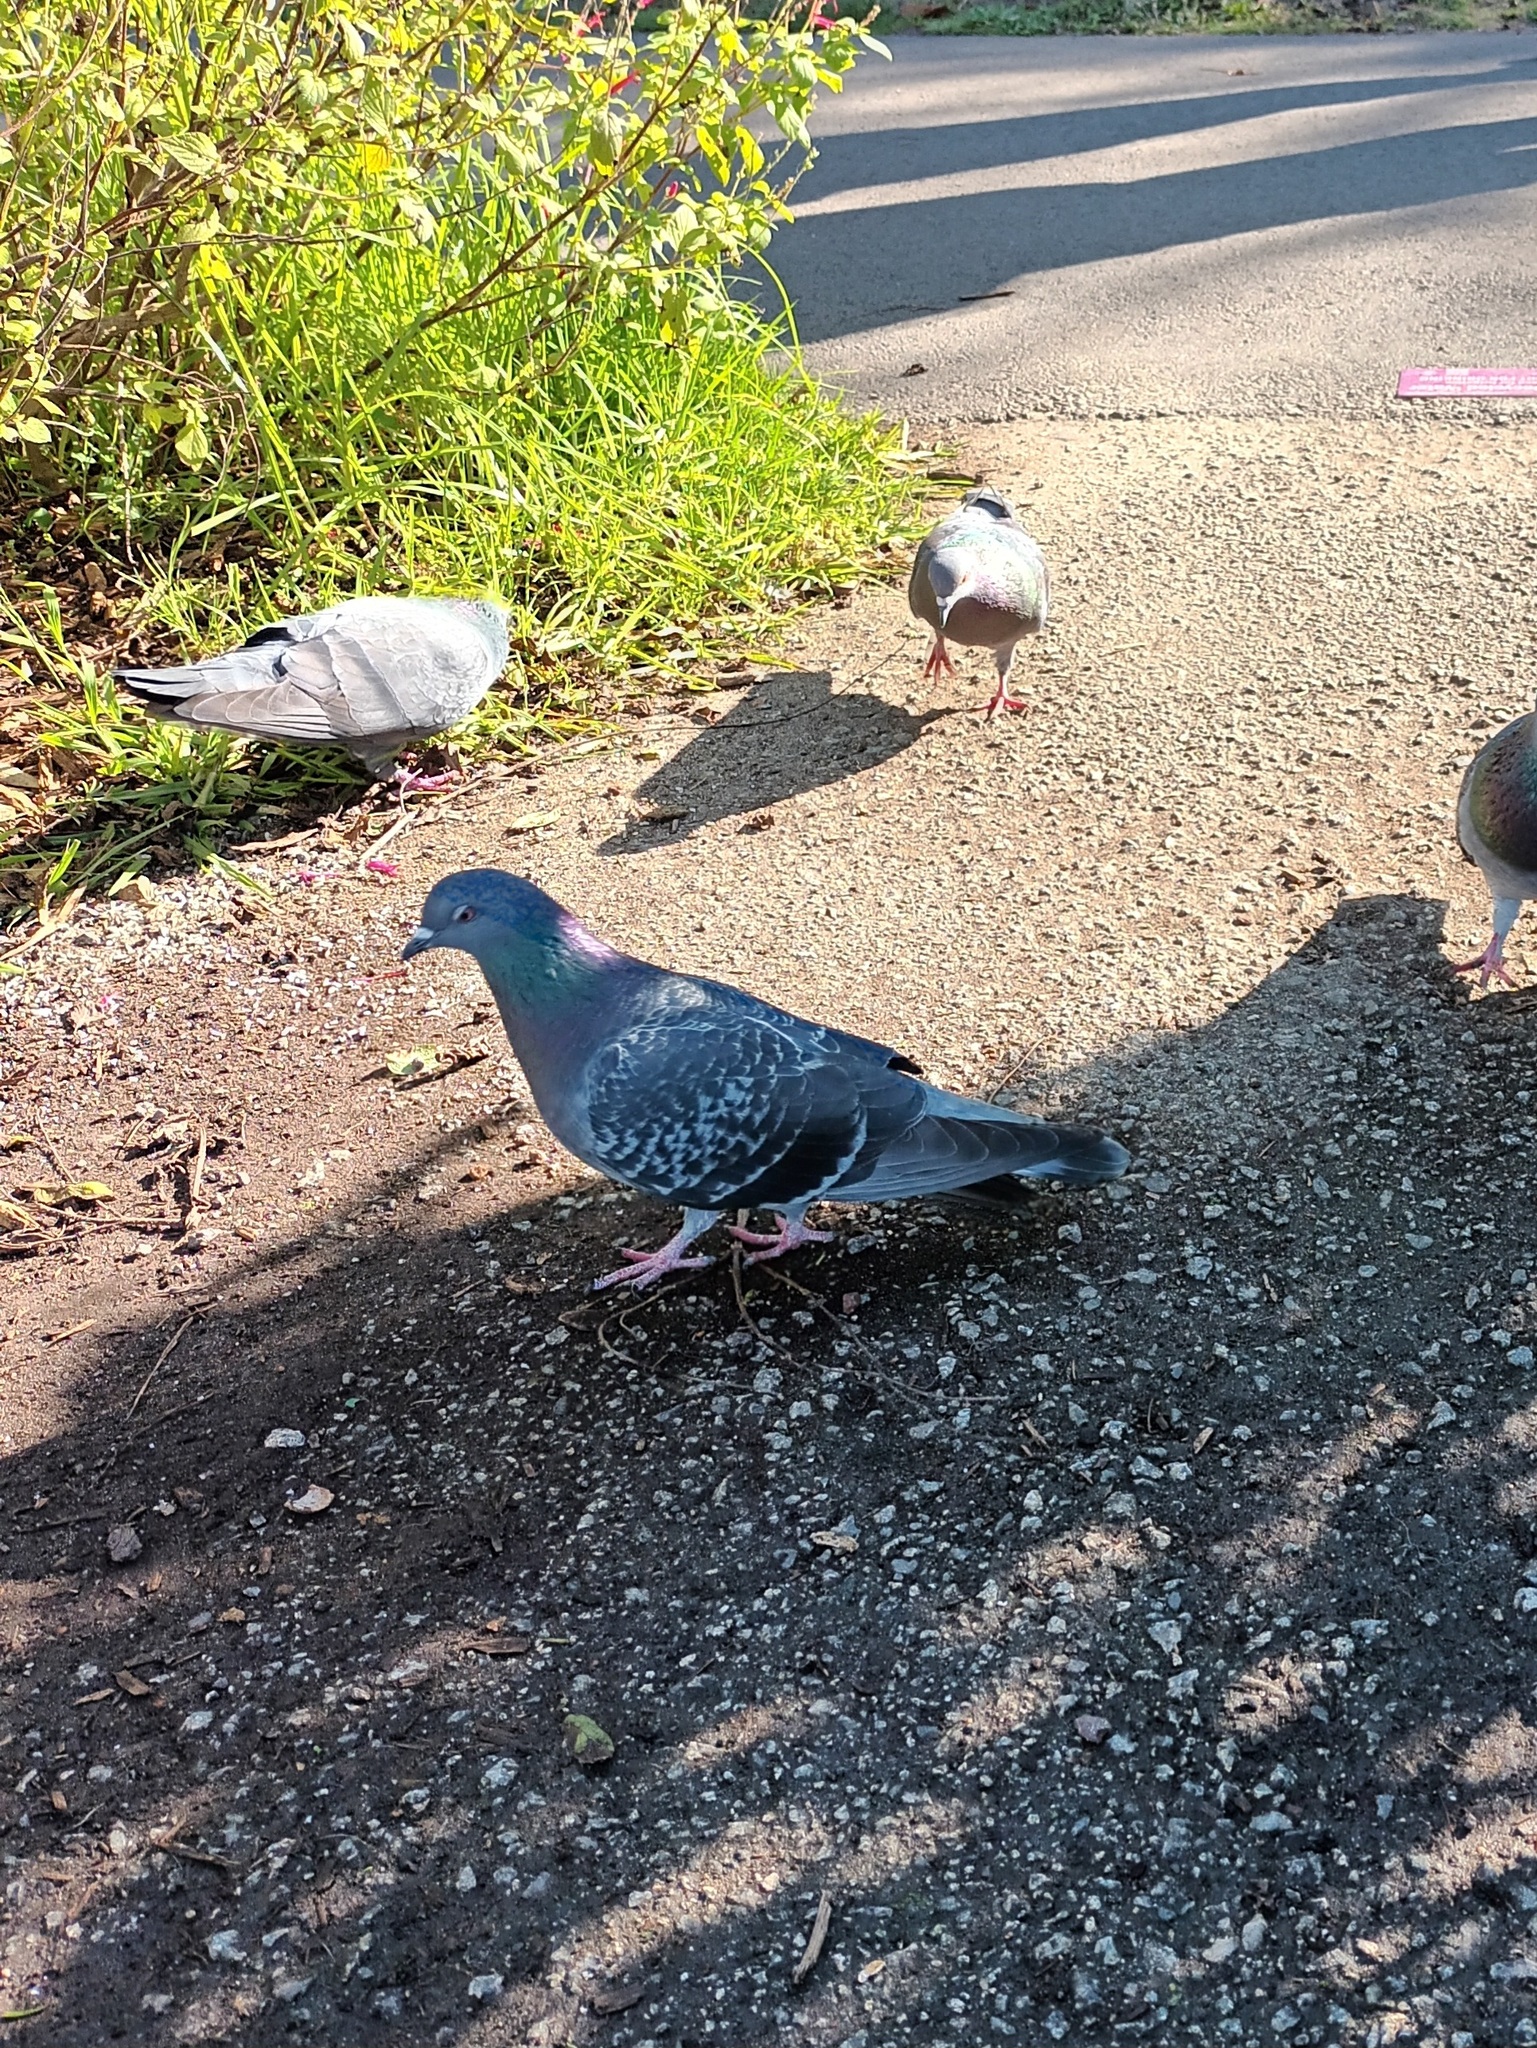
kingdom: Animalia
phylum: Chordata
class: Aves
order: Columbiformes
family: Columbidae
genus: Columba
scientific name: Columba livia
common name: Rock pigeon
